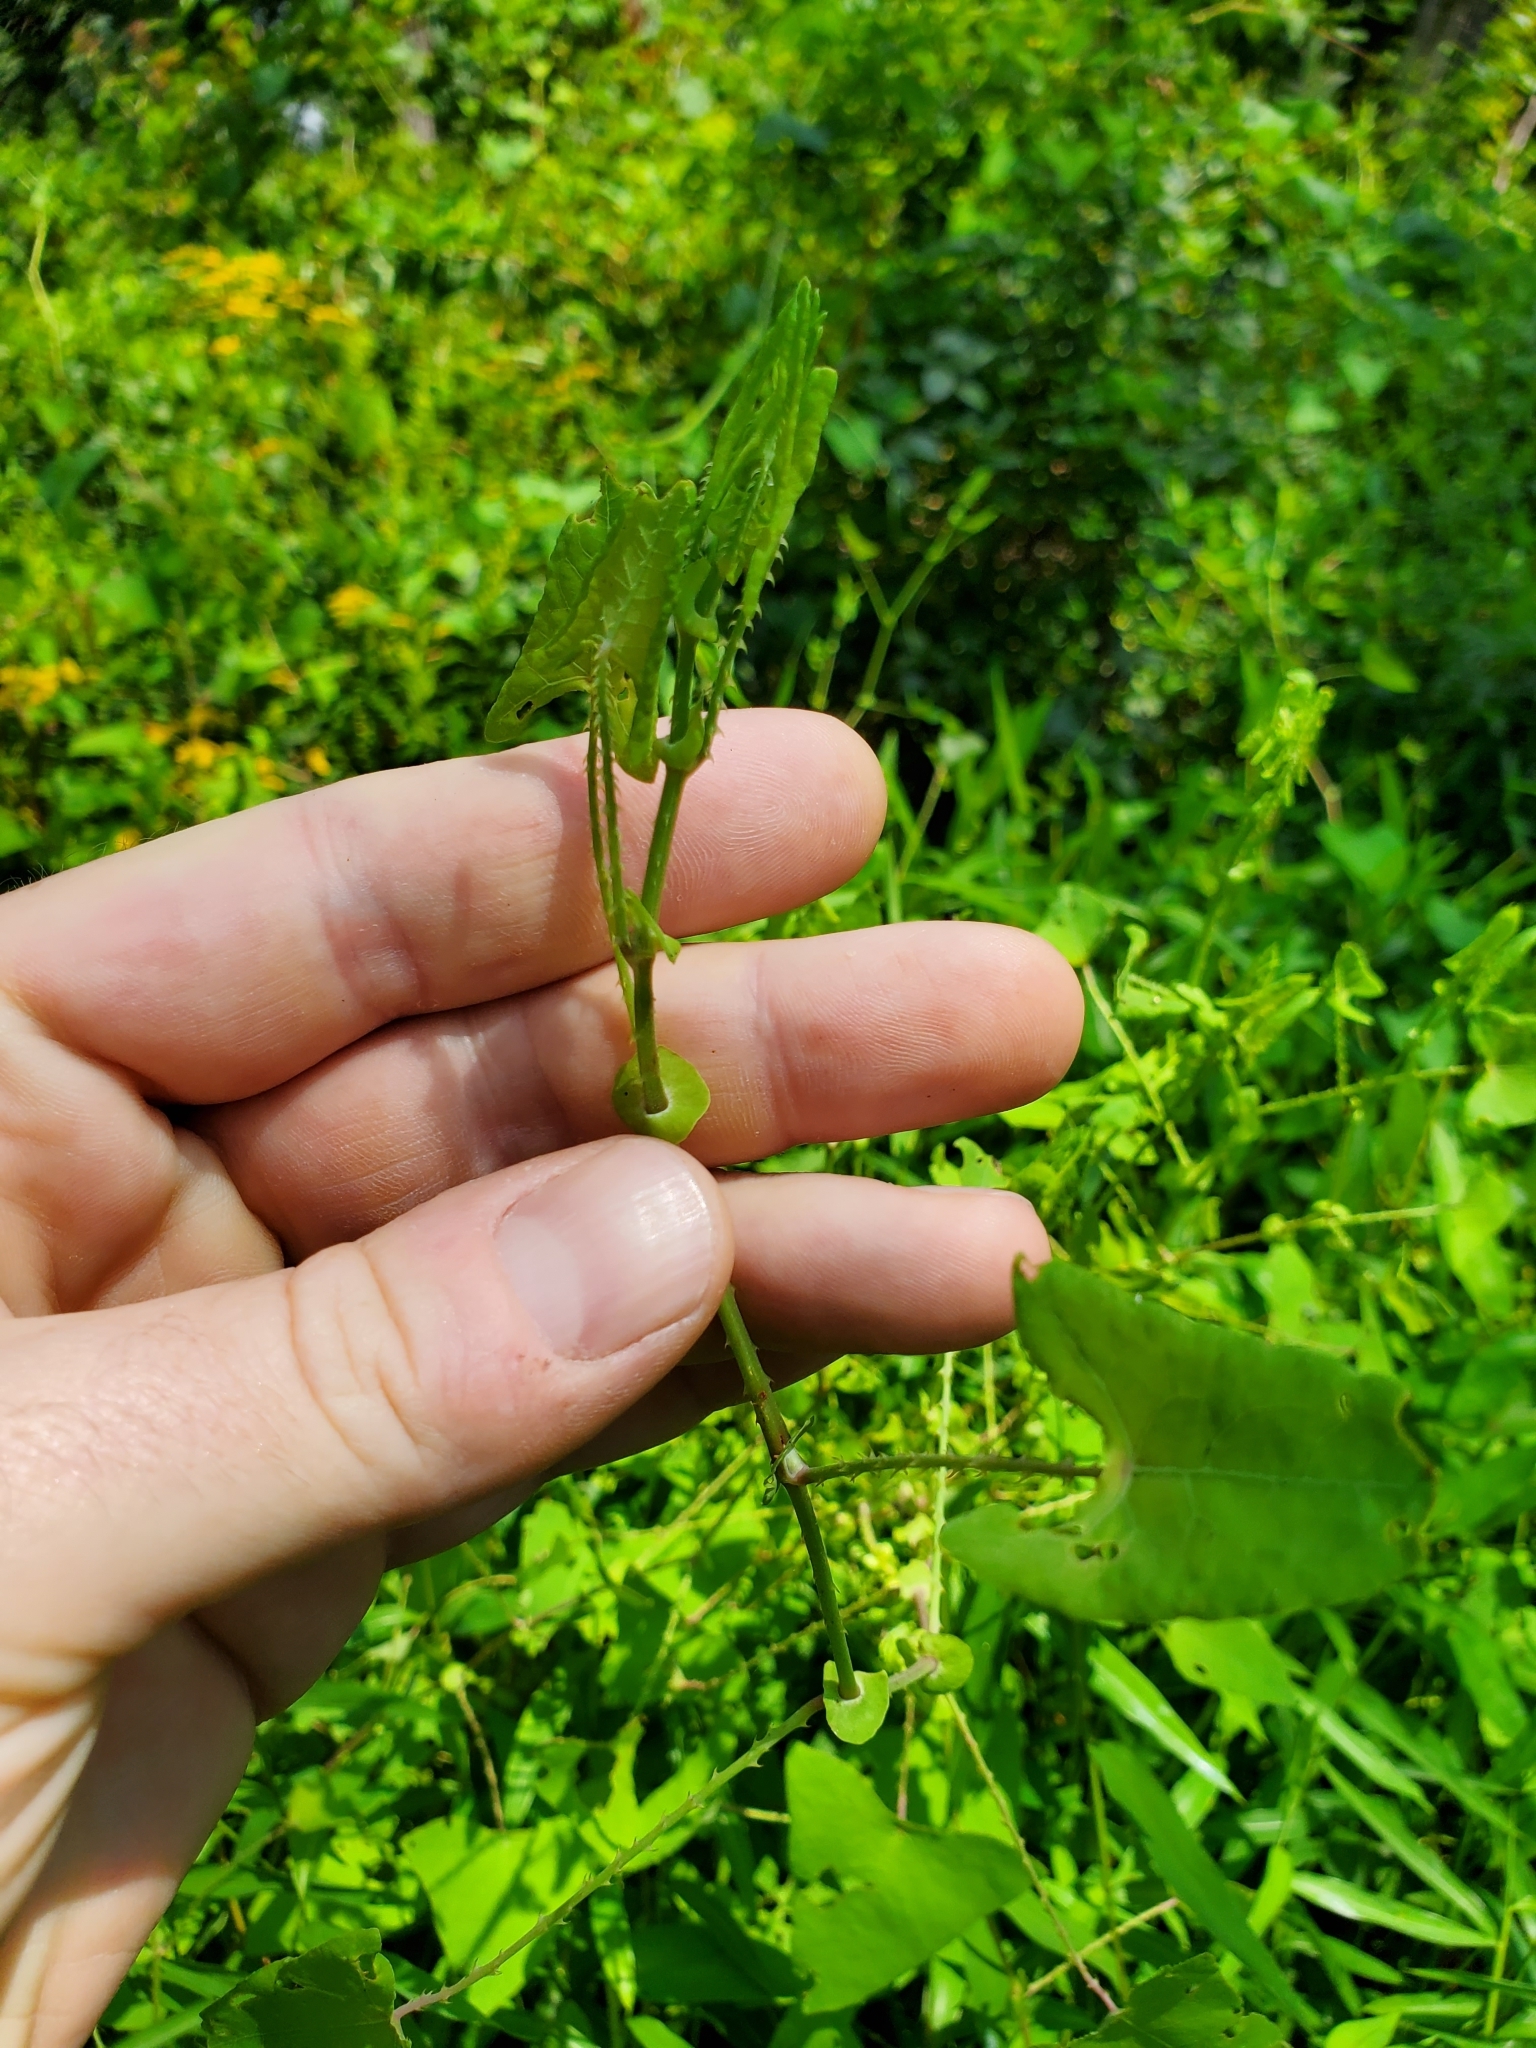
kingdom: Plantae
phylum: Tracheophyta
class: Magnoliopsida
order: Caryophyllales
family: Polygonaceae
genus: Persicaria
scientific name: Persicaria perfoliata
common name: Asiatic tearthumb
